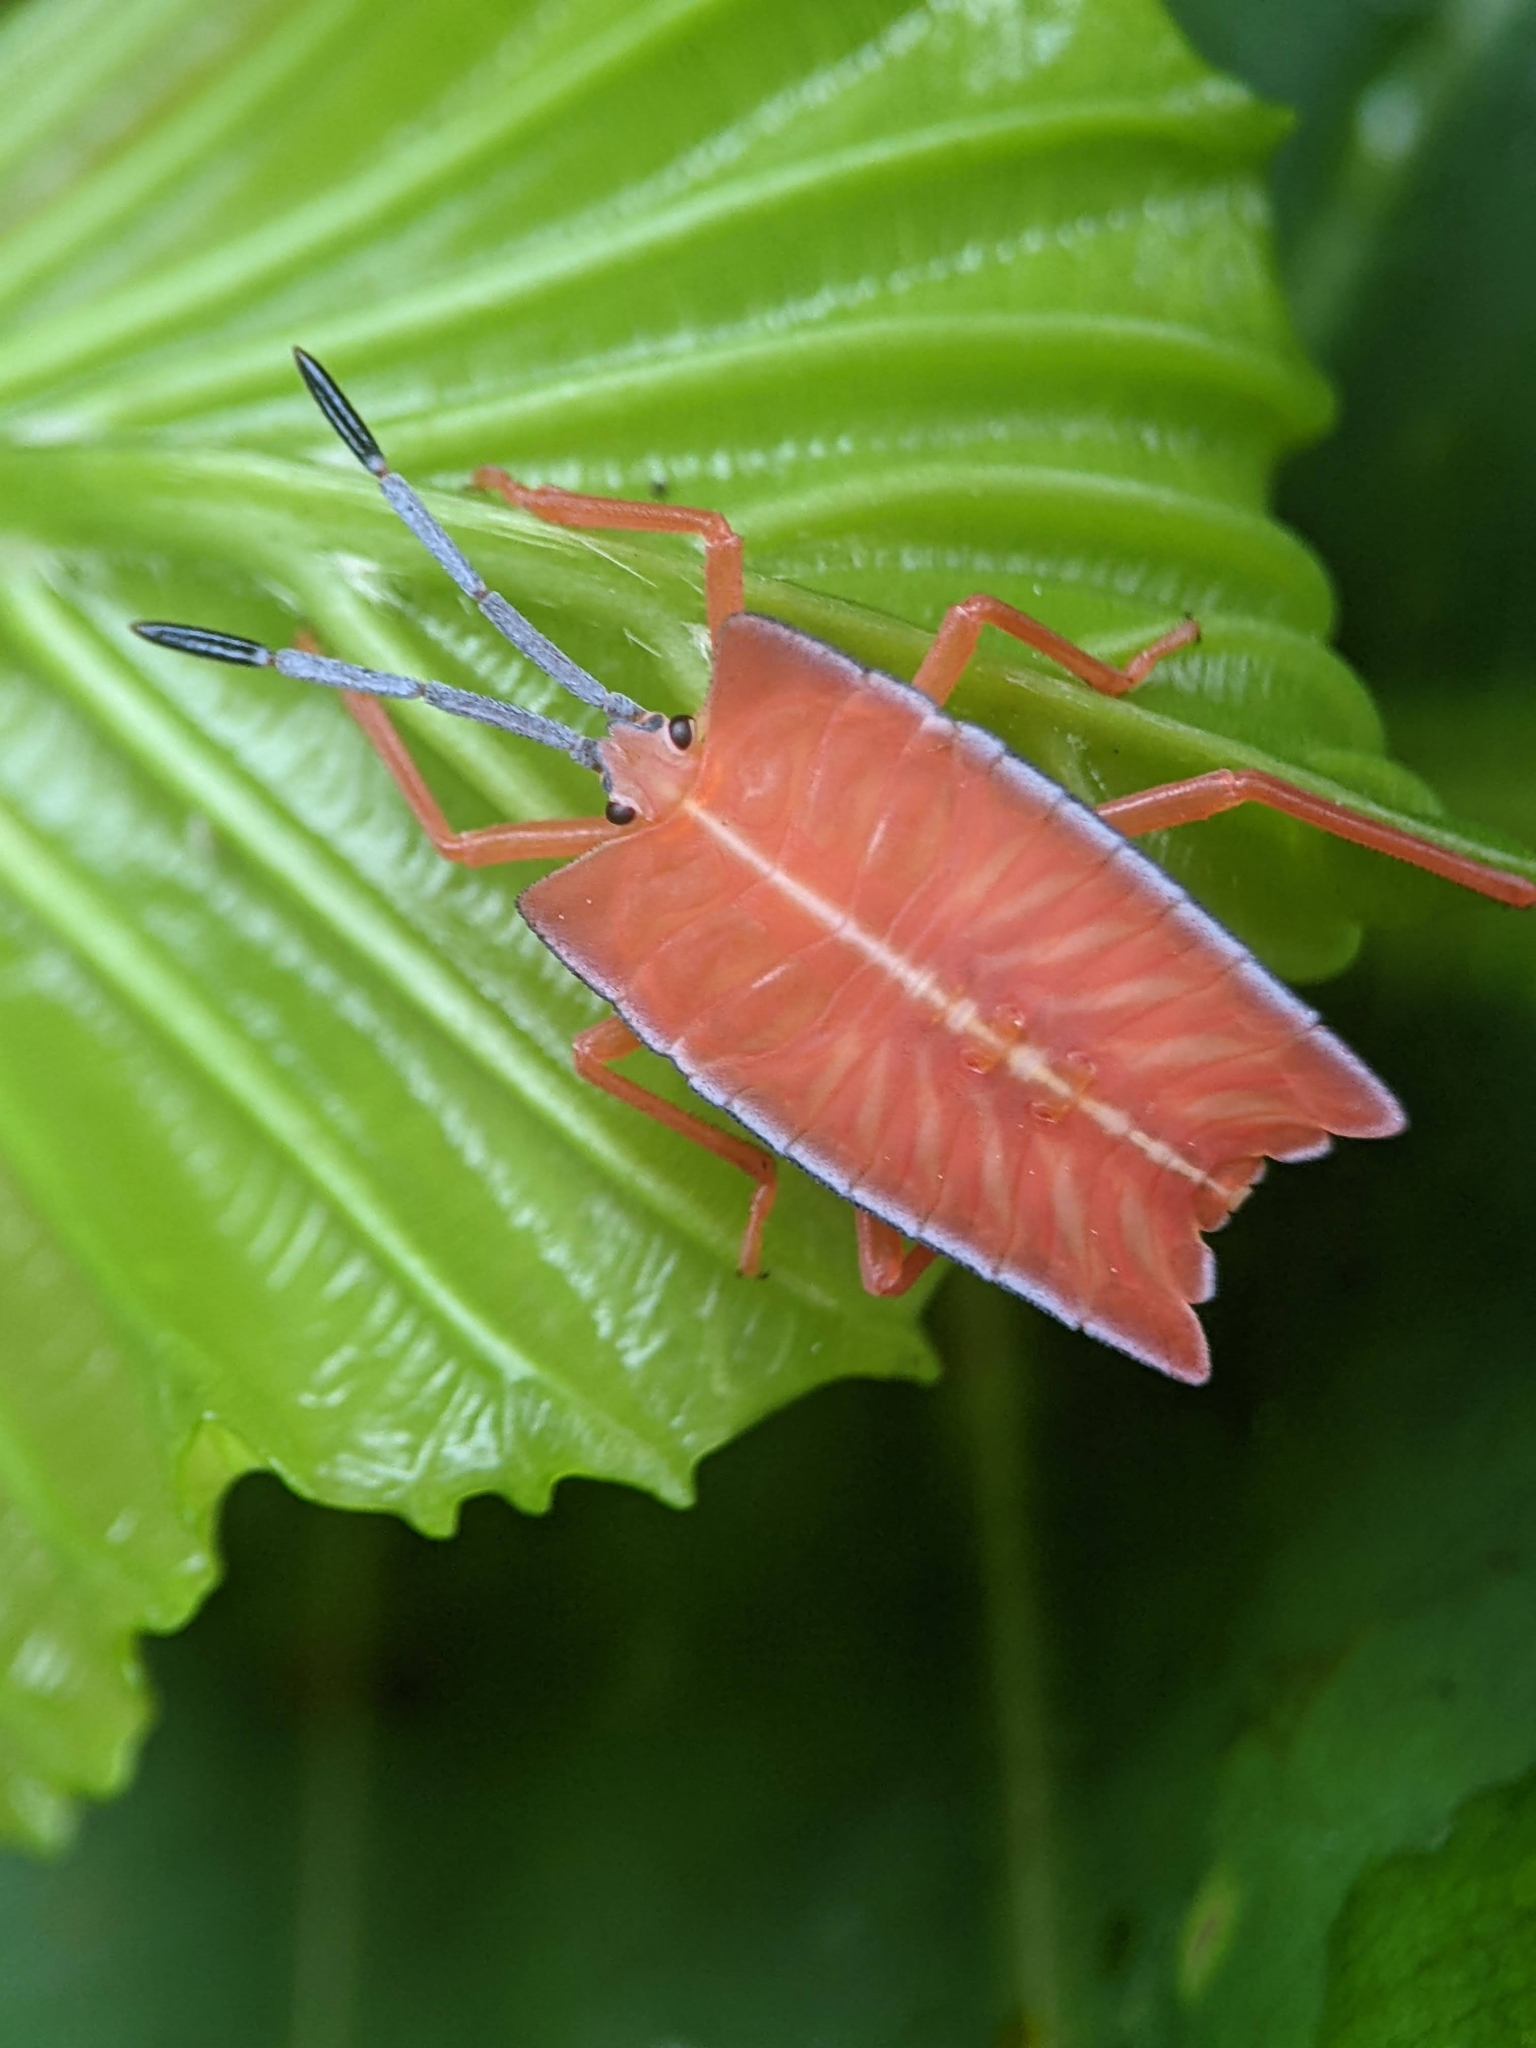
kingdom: Animalia
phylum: Arthropoda
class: Insecta
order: Hemiptera
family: Tessaratomidae
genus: Pycanum
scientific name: Pycanum alternatum
